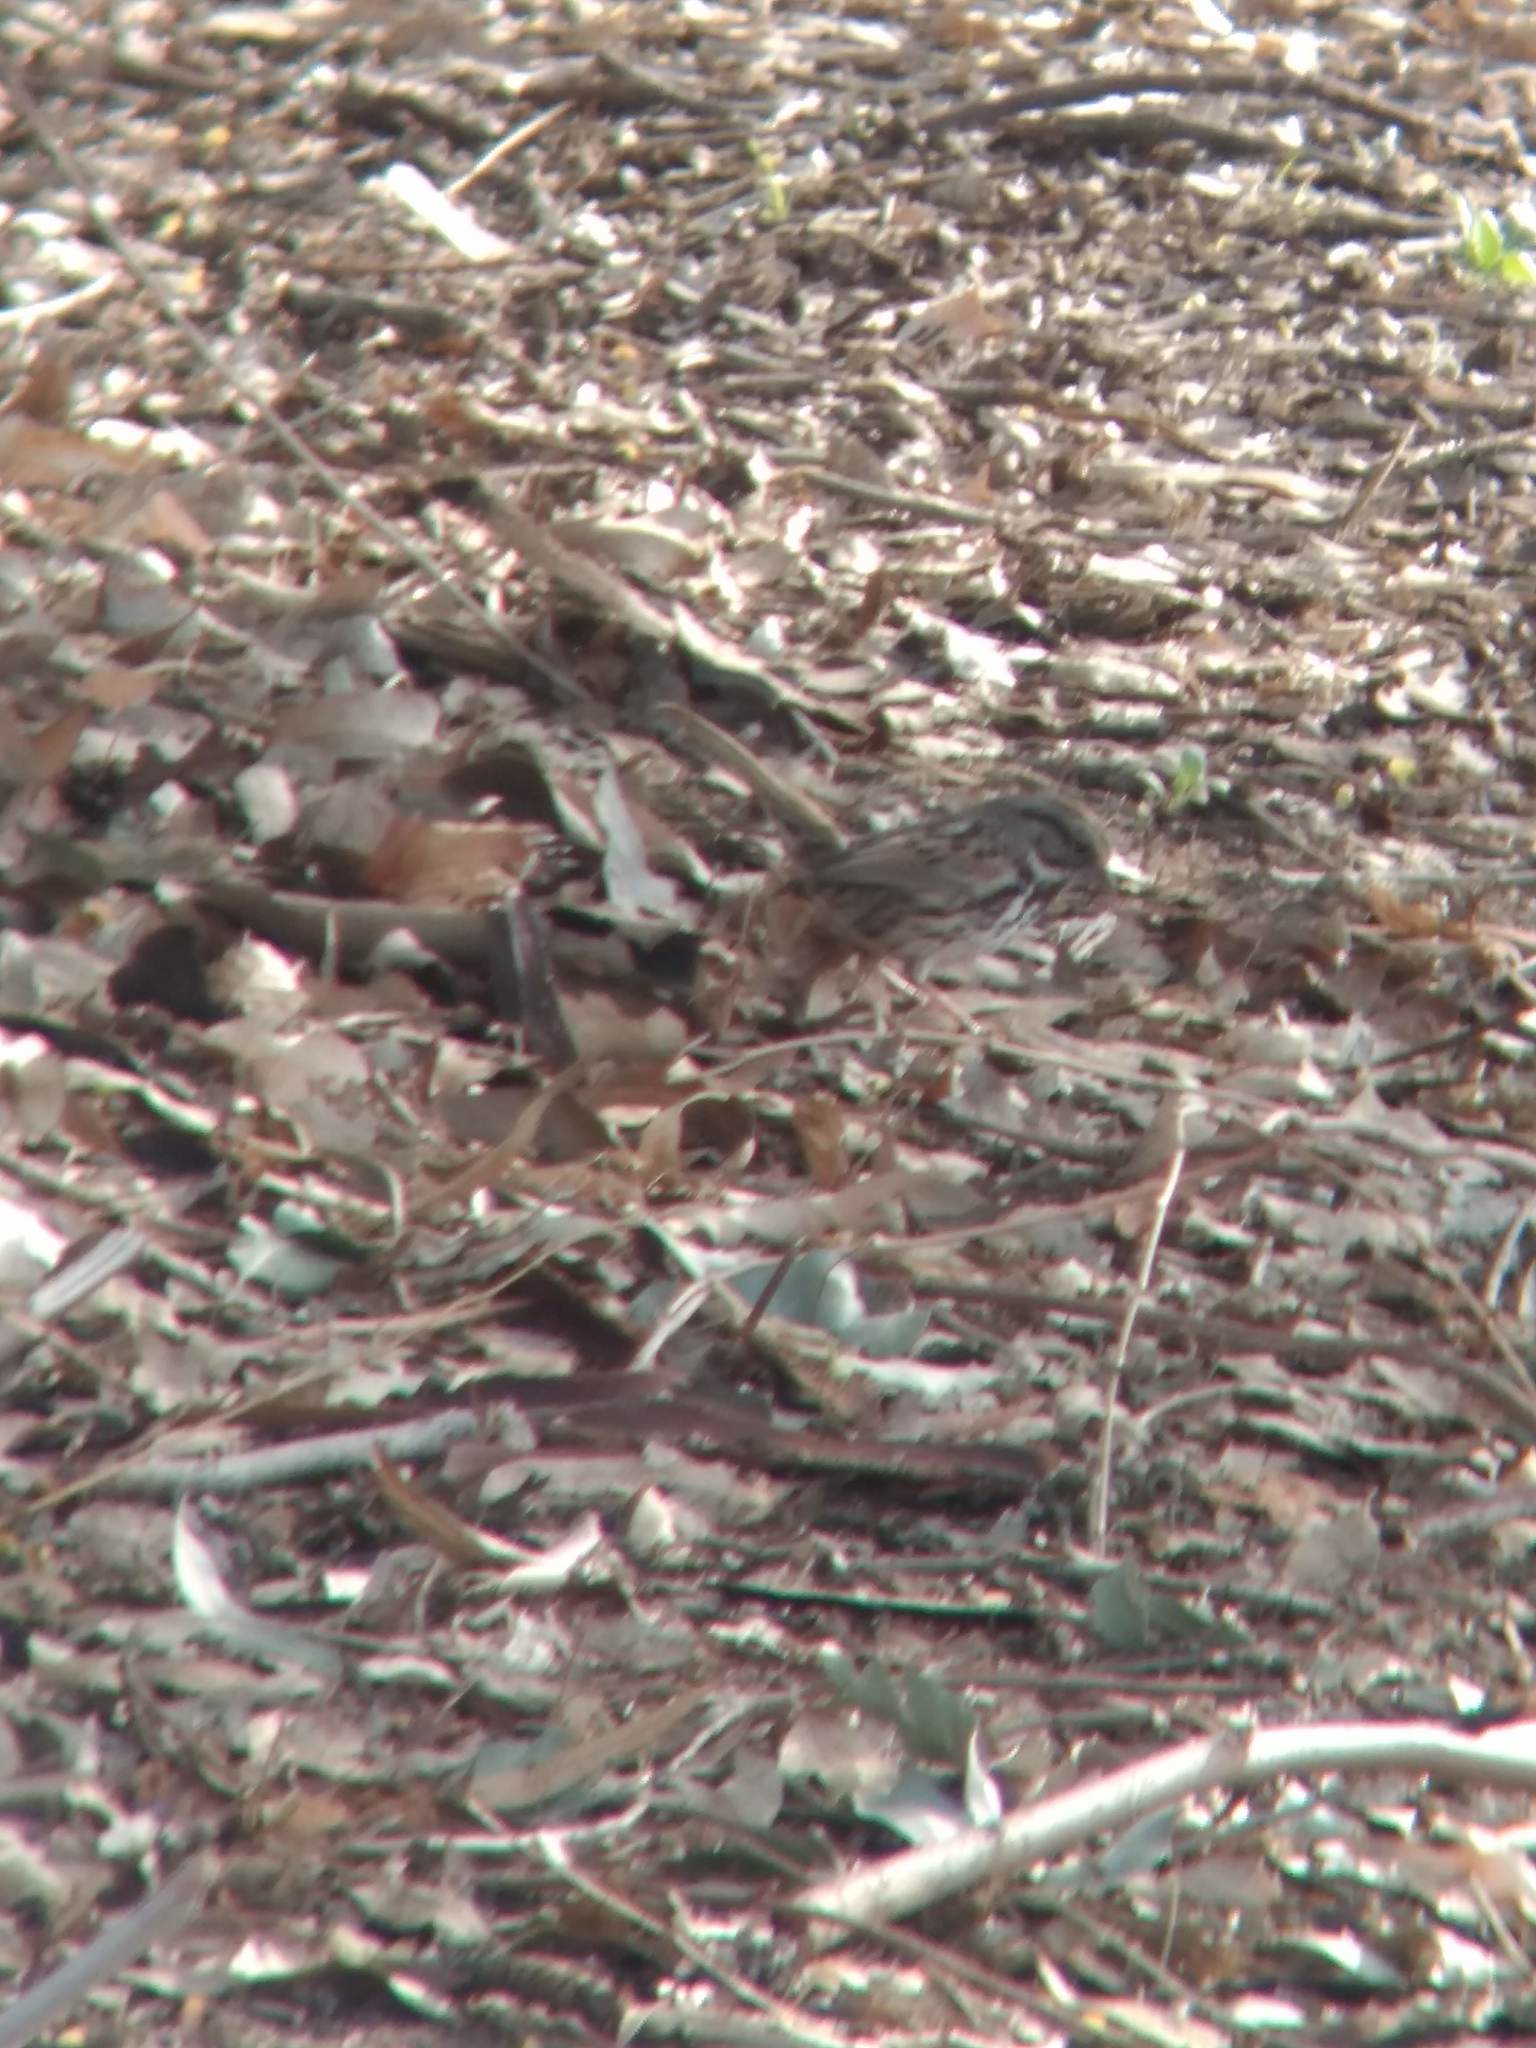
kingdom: Animalia
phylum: Chordata
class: Aves
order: Passeriformes
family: Passerellidae
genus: Melospiza
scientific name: Melospiza melodia
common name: Song sparrow
